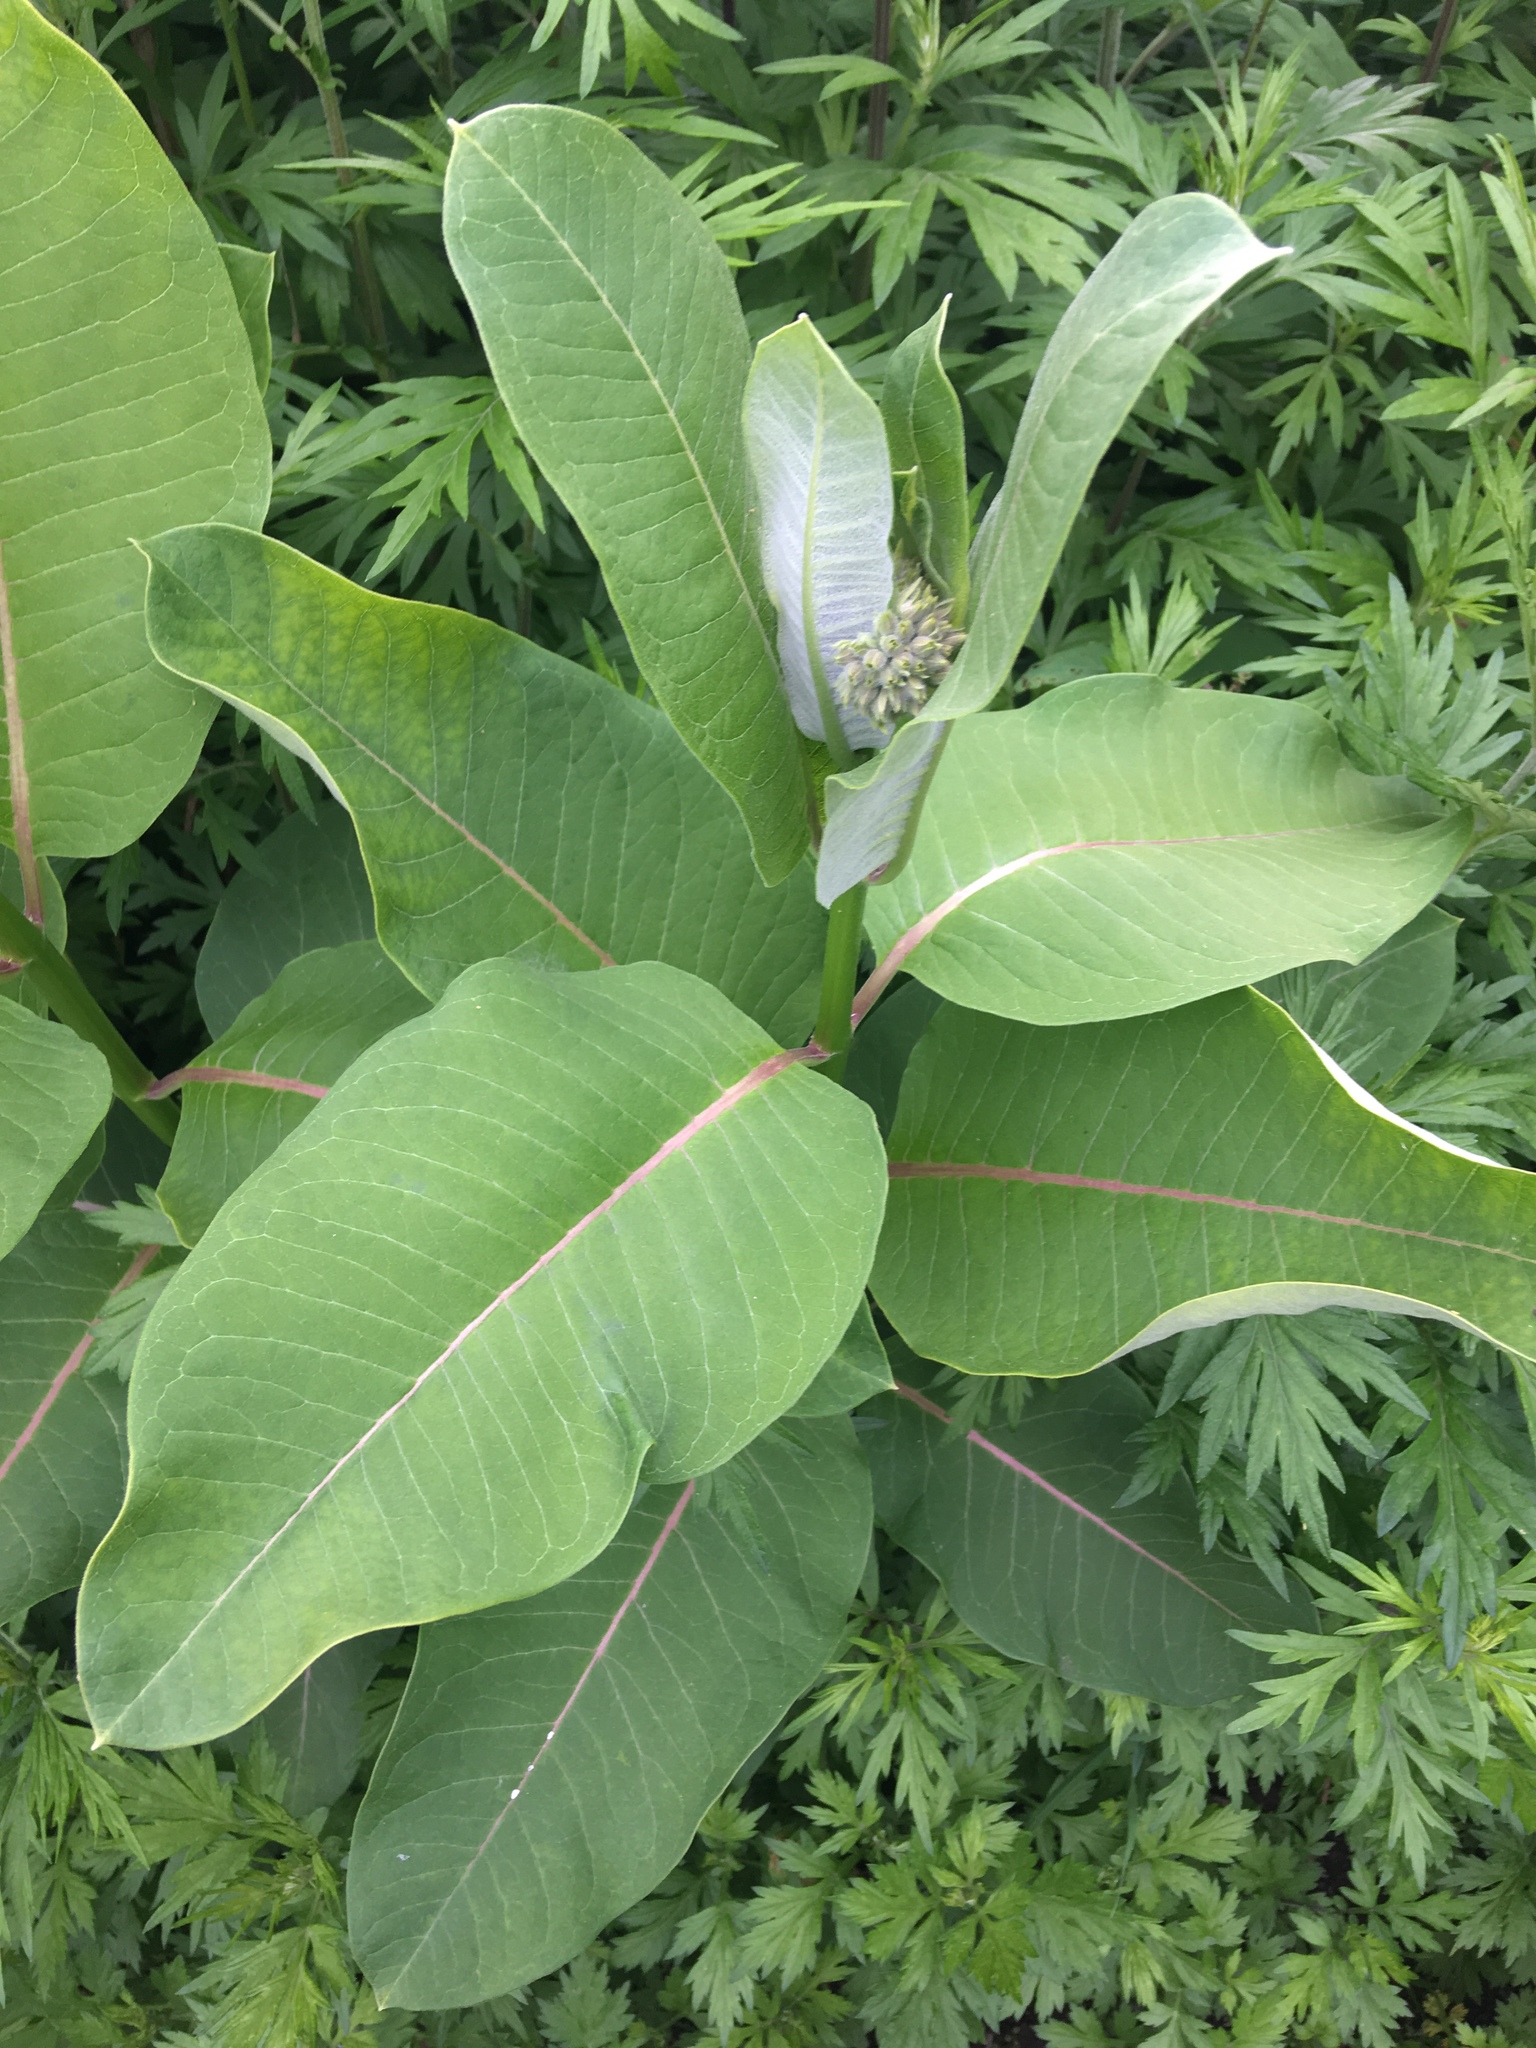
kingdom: Plantae
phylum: Tracheophyta
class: Magnoliopsida
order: Gentianales
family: Apocynaceae
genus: Asclepias
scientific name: Asclepias syriaca
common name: Common milkweed
